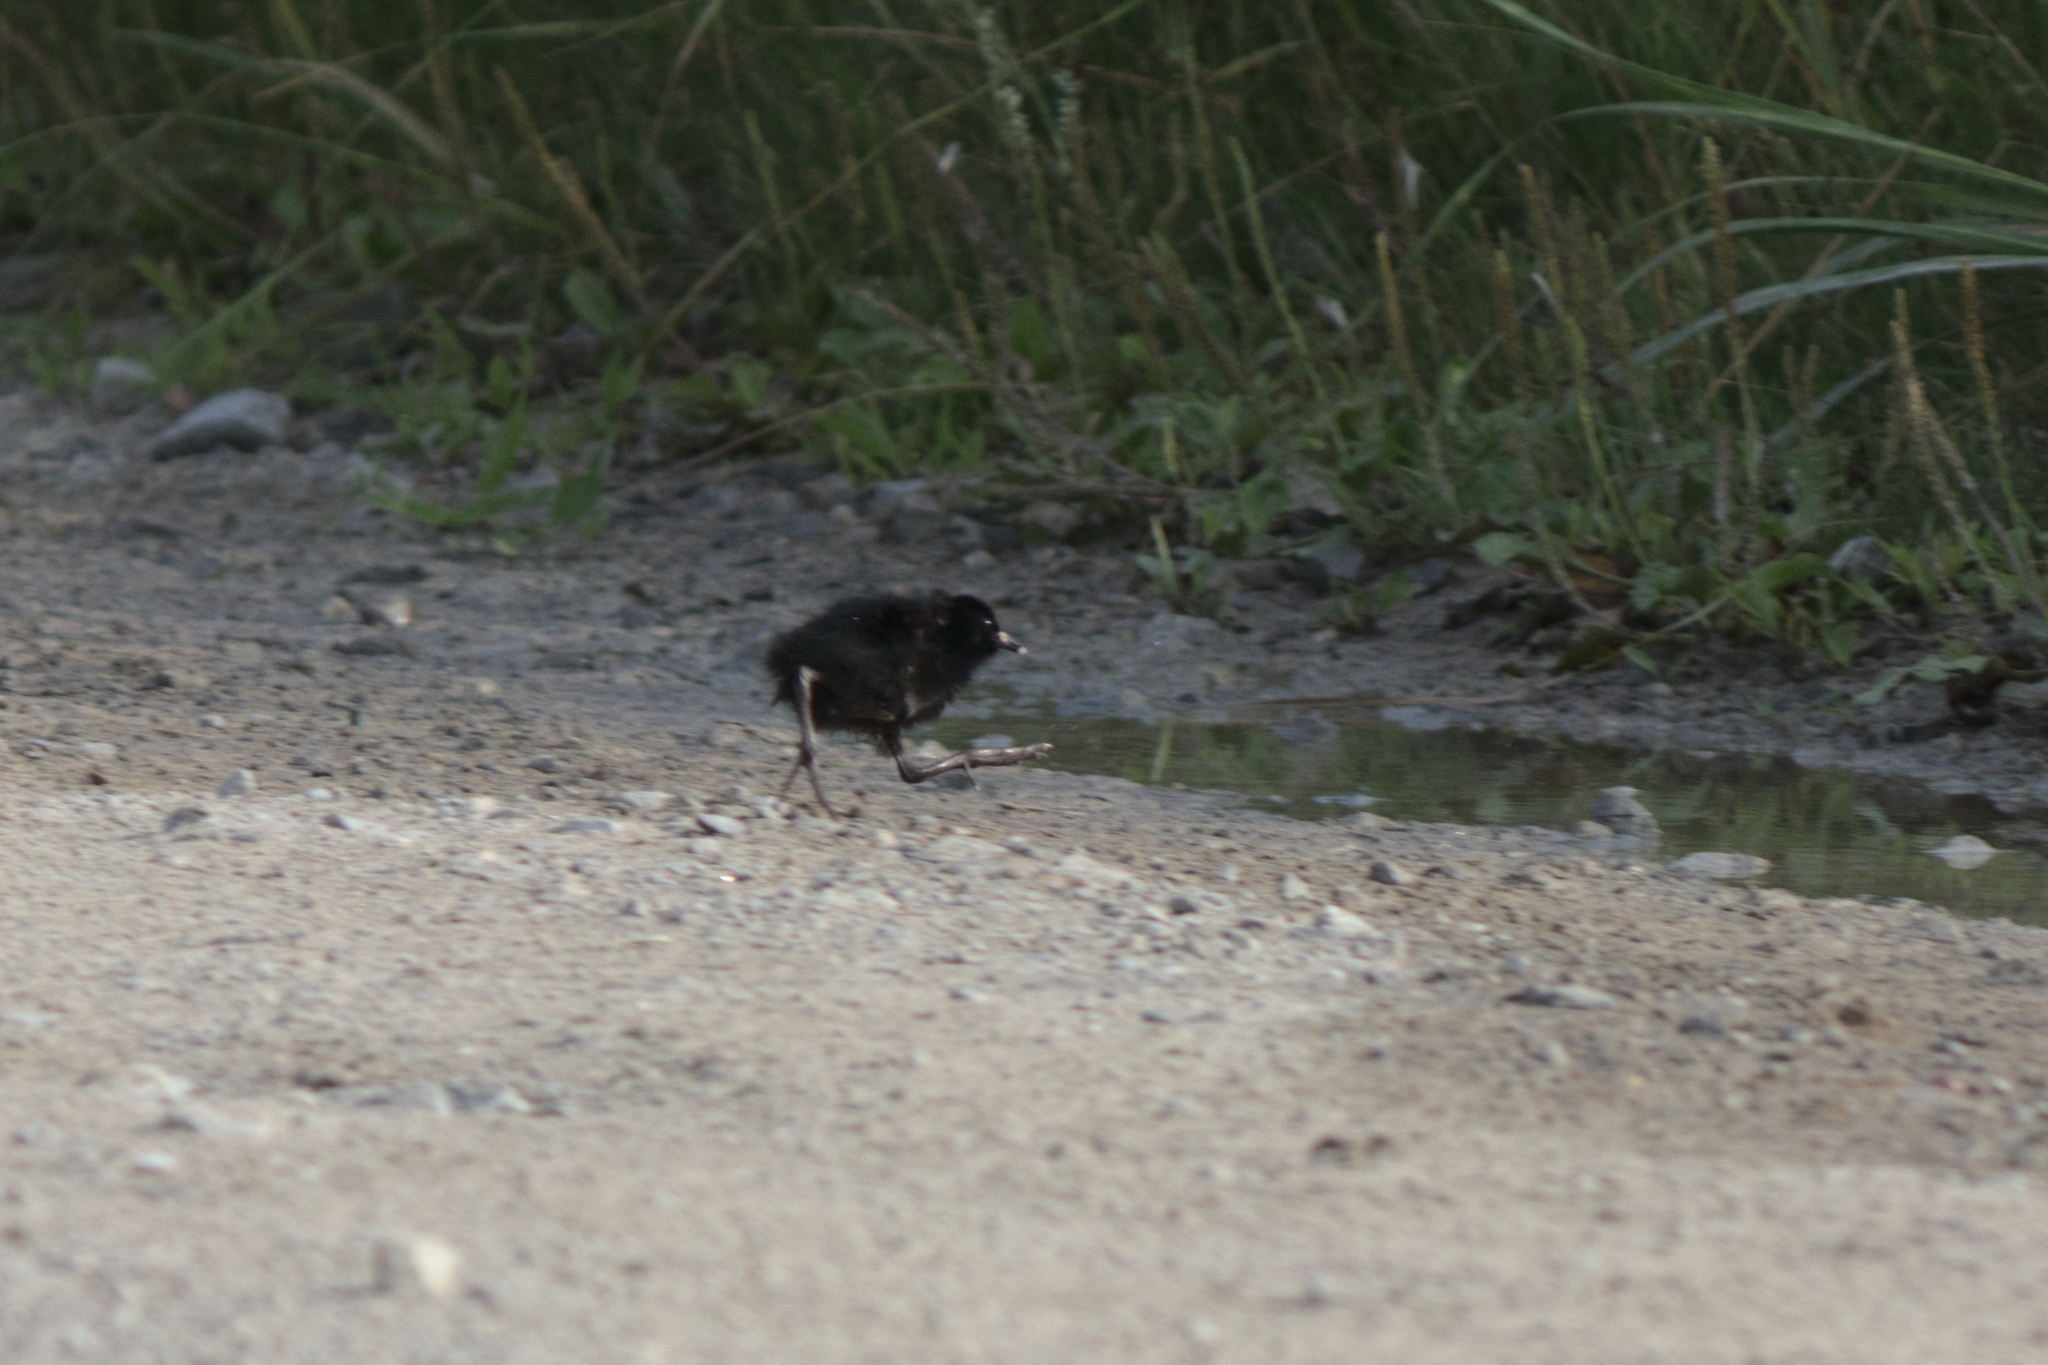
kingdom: Animalia
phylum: Chordata
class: Aves
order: Gruiformes
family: Rallidae
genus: Rallus
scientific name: Rallus limicola
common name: Virginia rail
